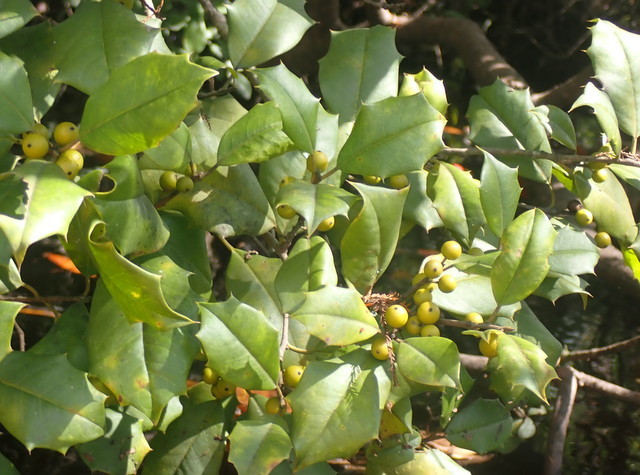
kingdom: Plantae
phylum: Tracheophyta
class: Magnoliopsida
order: Aquifoliales
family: Aquifoliaceae
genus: Ilex
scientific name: Ilex opaca
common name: American holly
